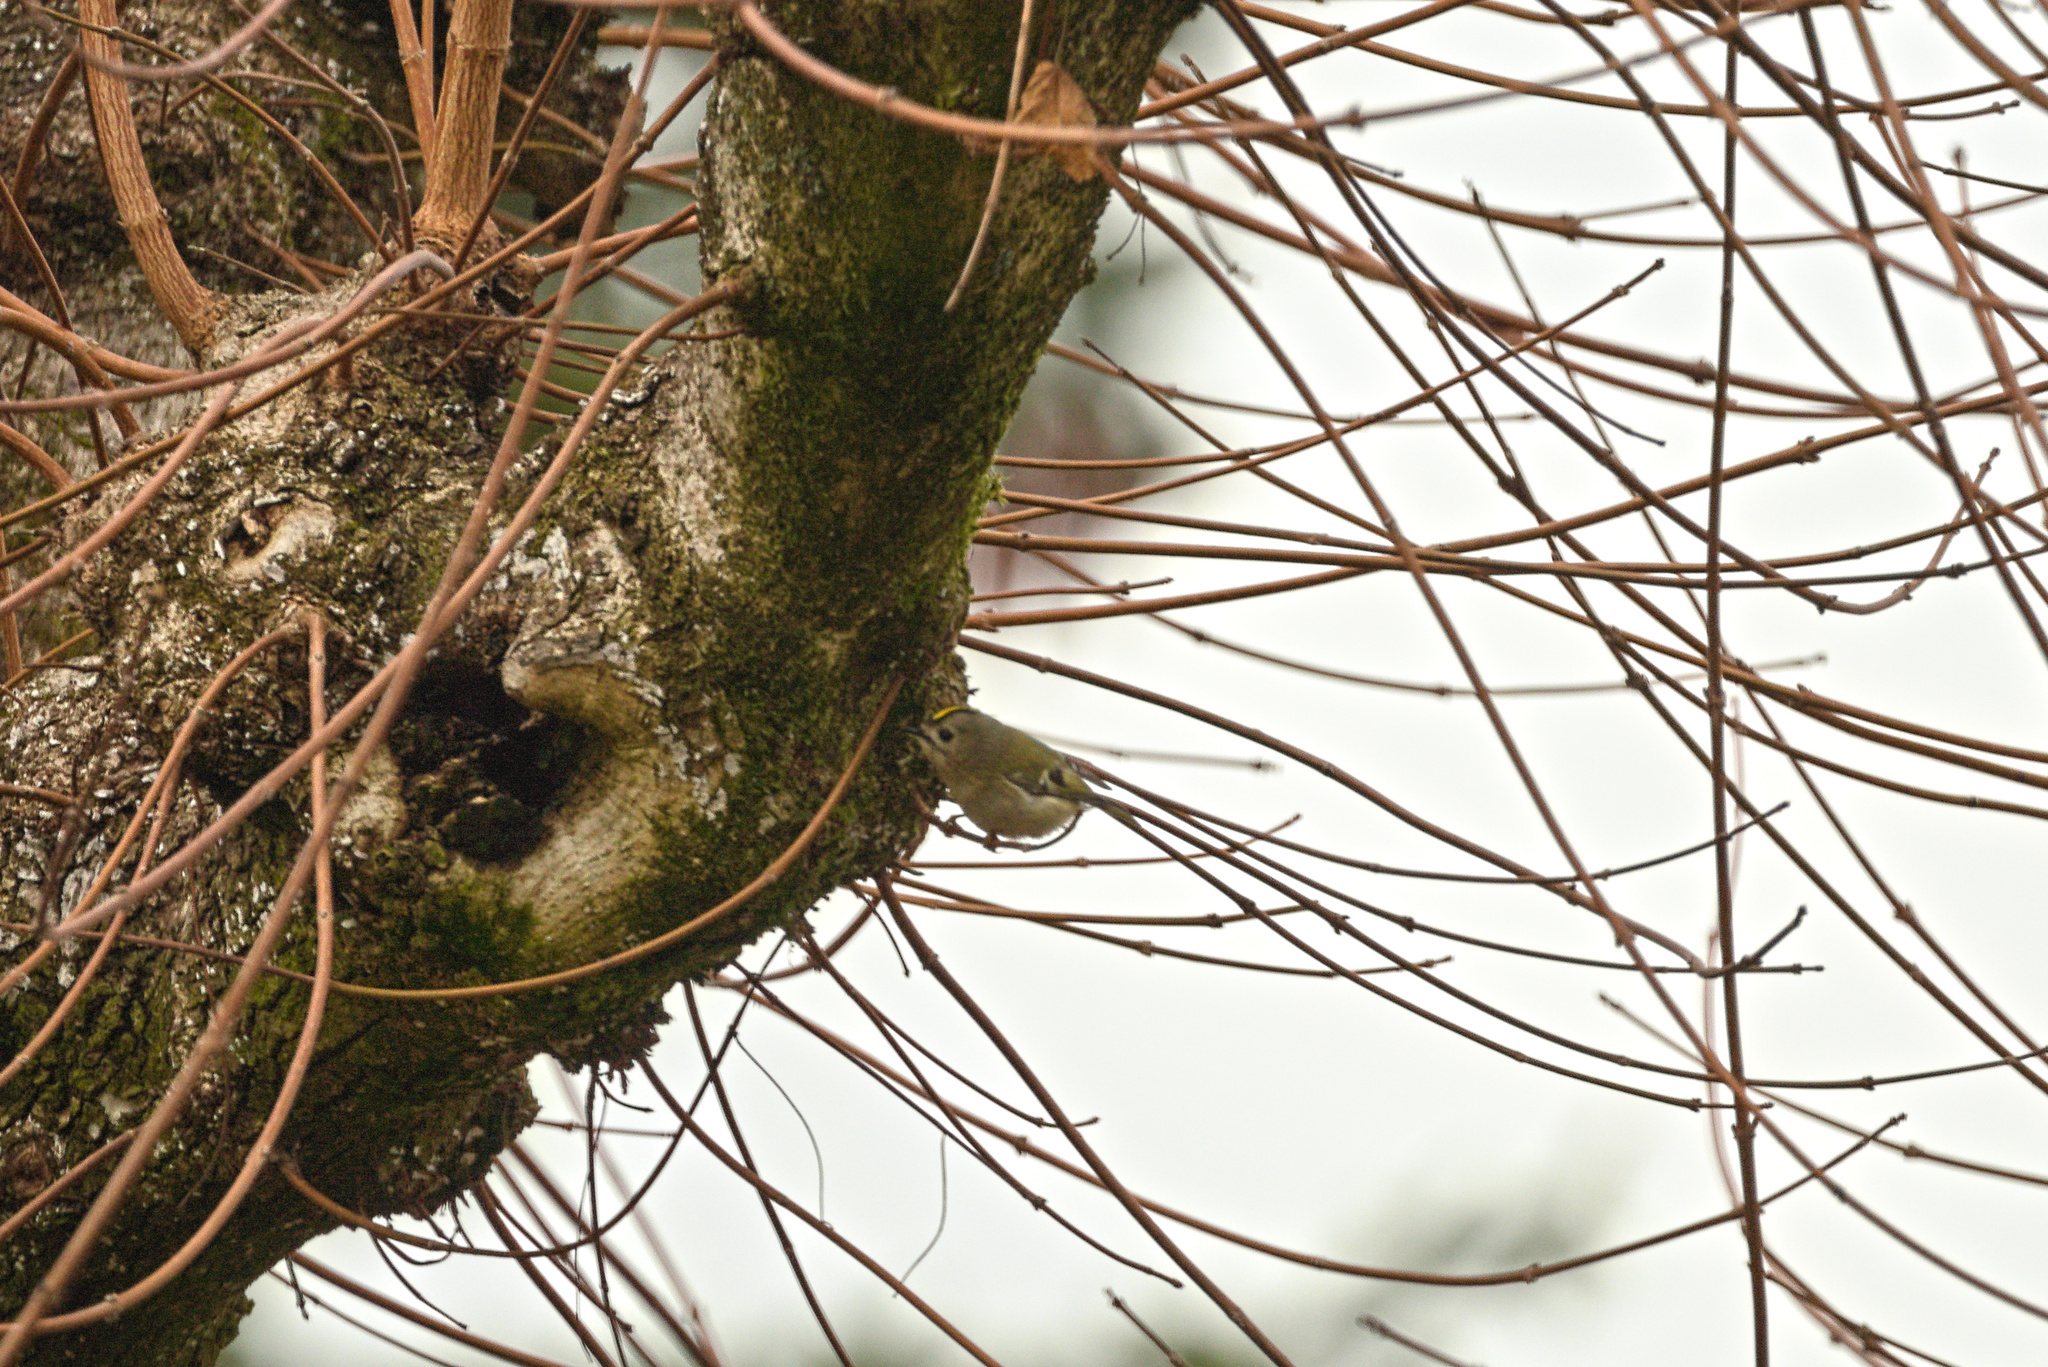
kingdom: Animalia
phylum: Chordata
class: Aves
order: Passeriformes
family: Regulidae
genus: Regulus
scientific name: Regulus regulus
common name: Goldcrest
